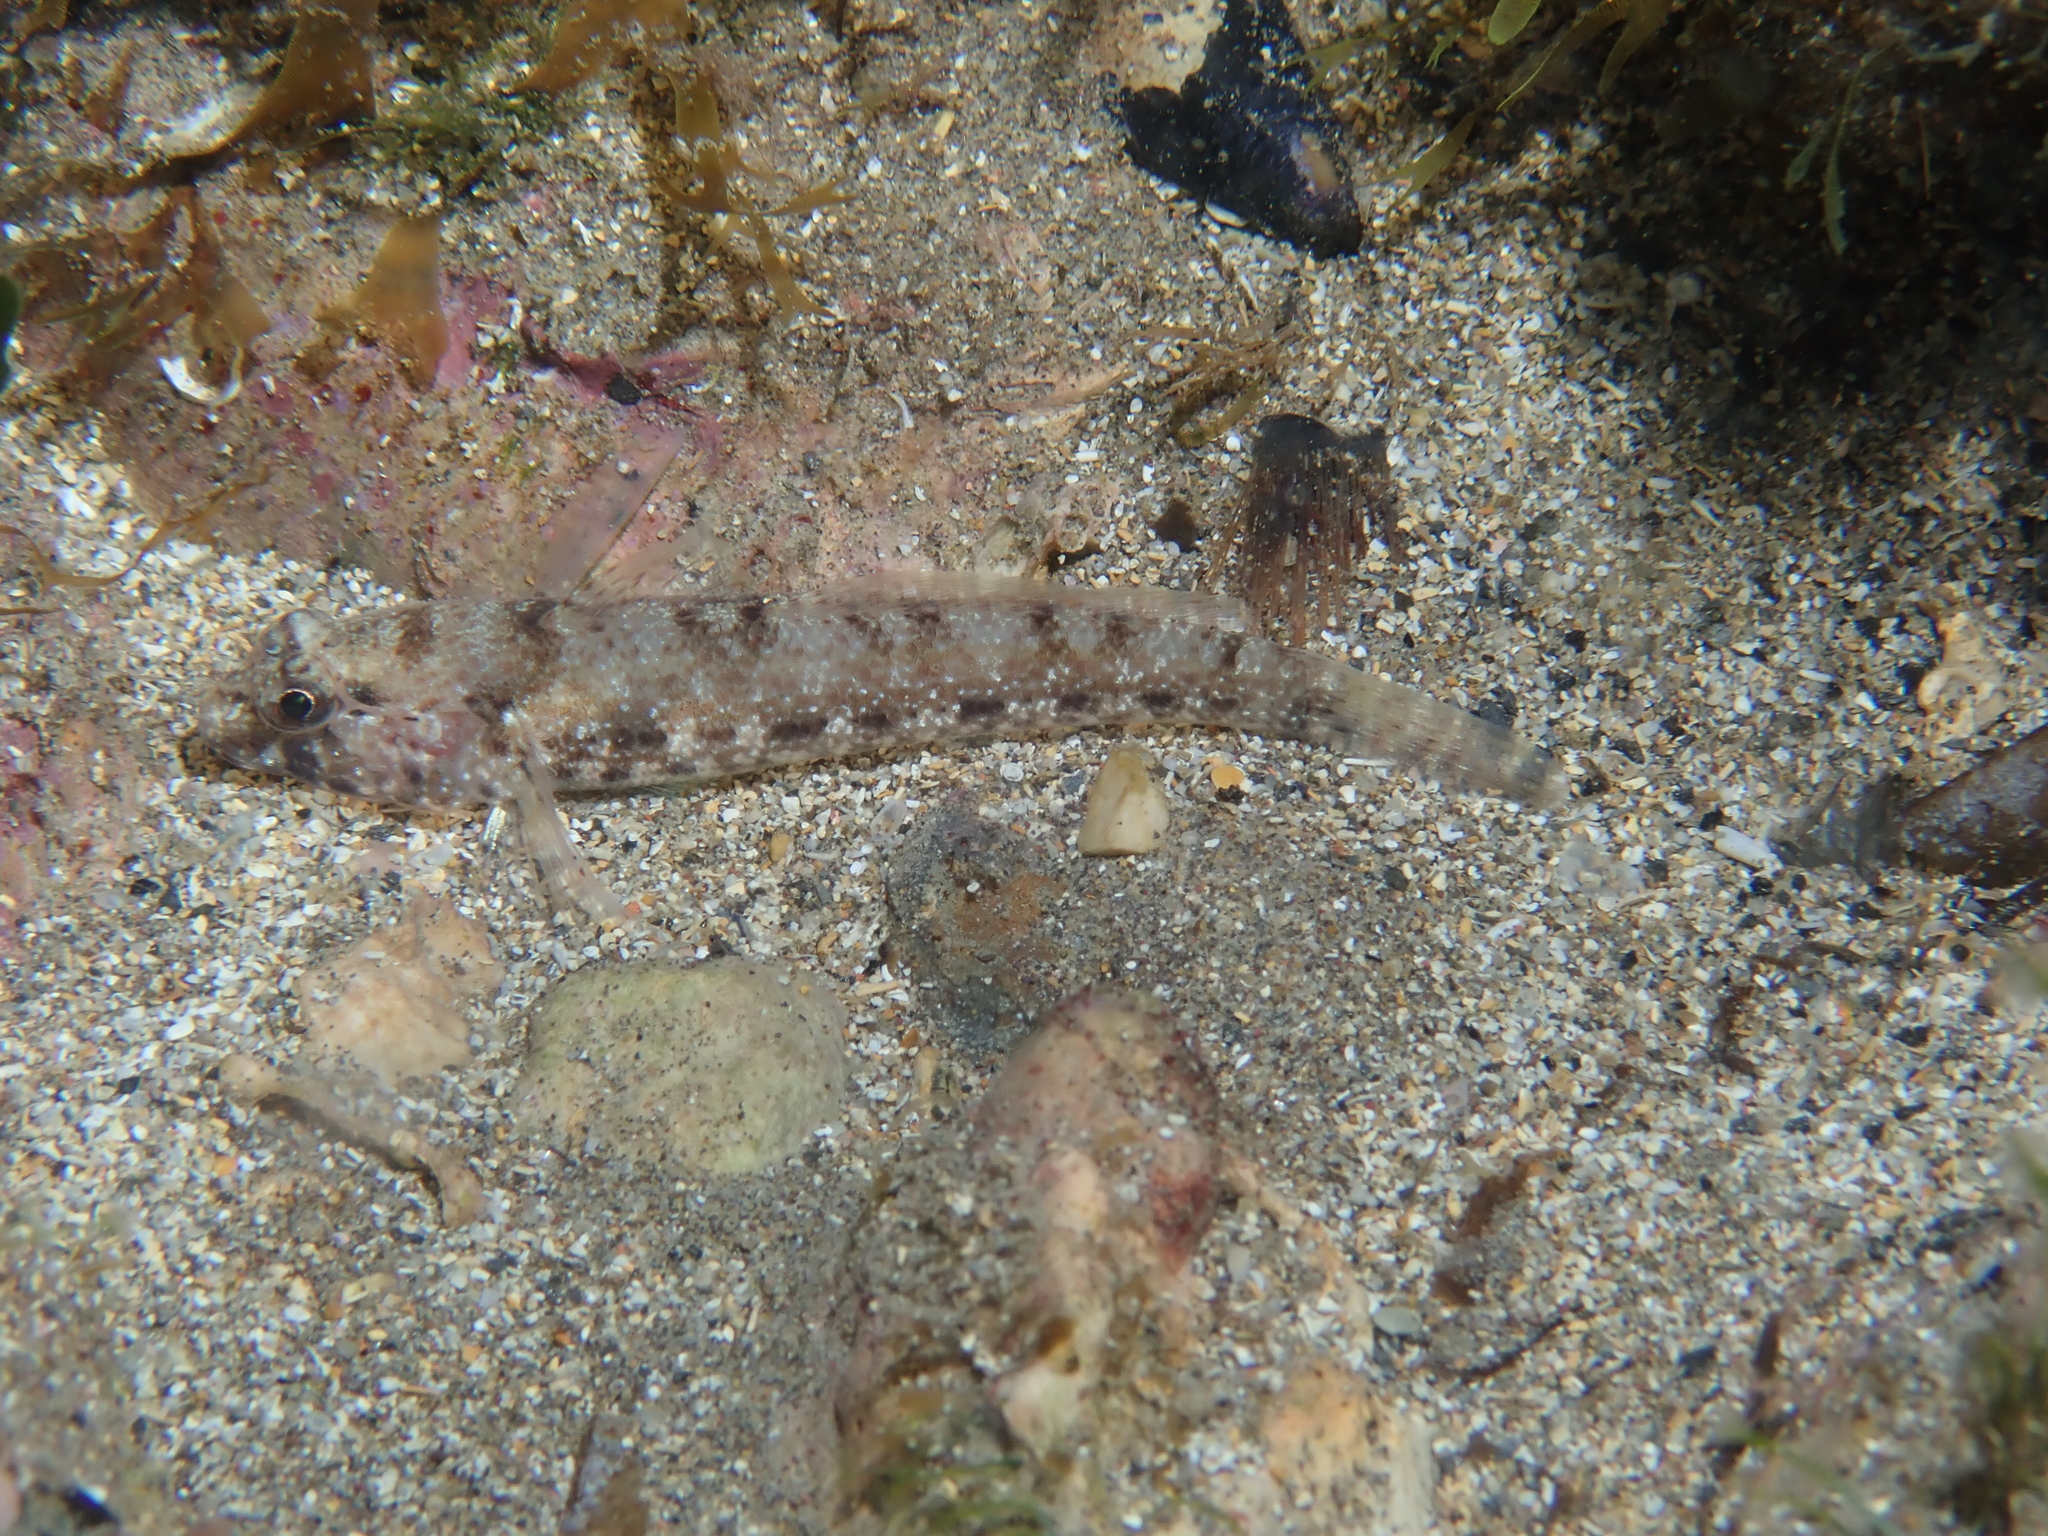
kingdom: Animalia
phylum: Chordata
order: Perciformes
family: Gobiidae
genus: Gobius
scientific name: Gobius incognitus
